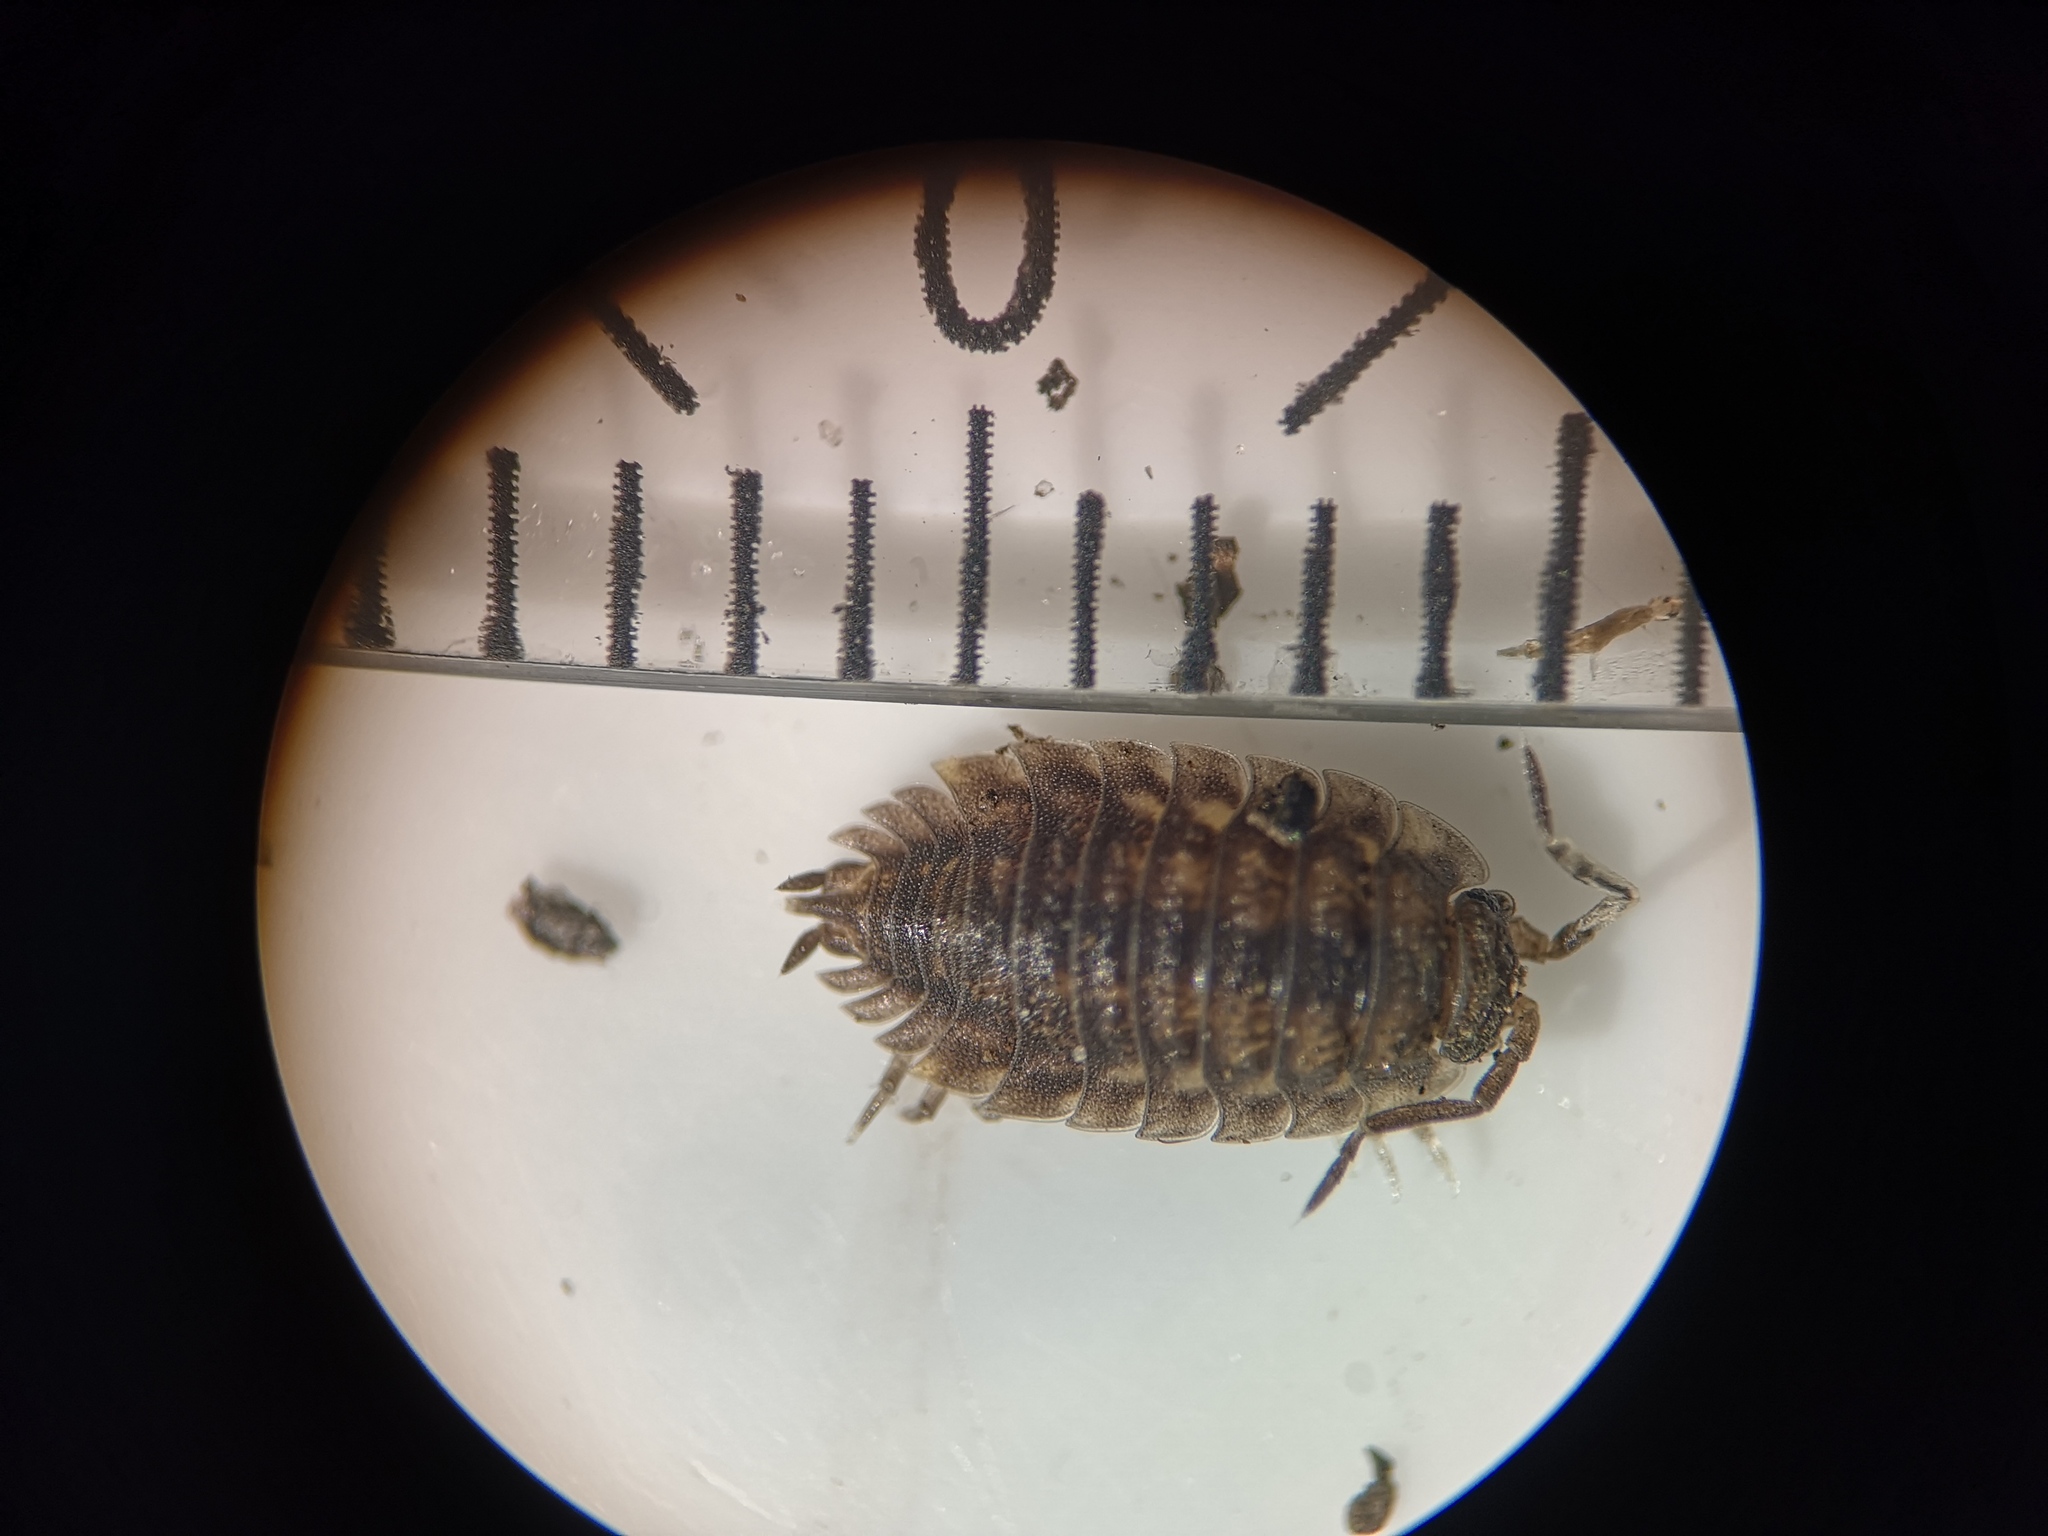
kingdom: Animalia
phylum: Arthropoda
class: Malacostraca
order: Isopoda
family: Oniscidae
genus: Oniscus
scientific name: Oniscus asellus
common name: Common shiny woodlouse
